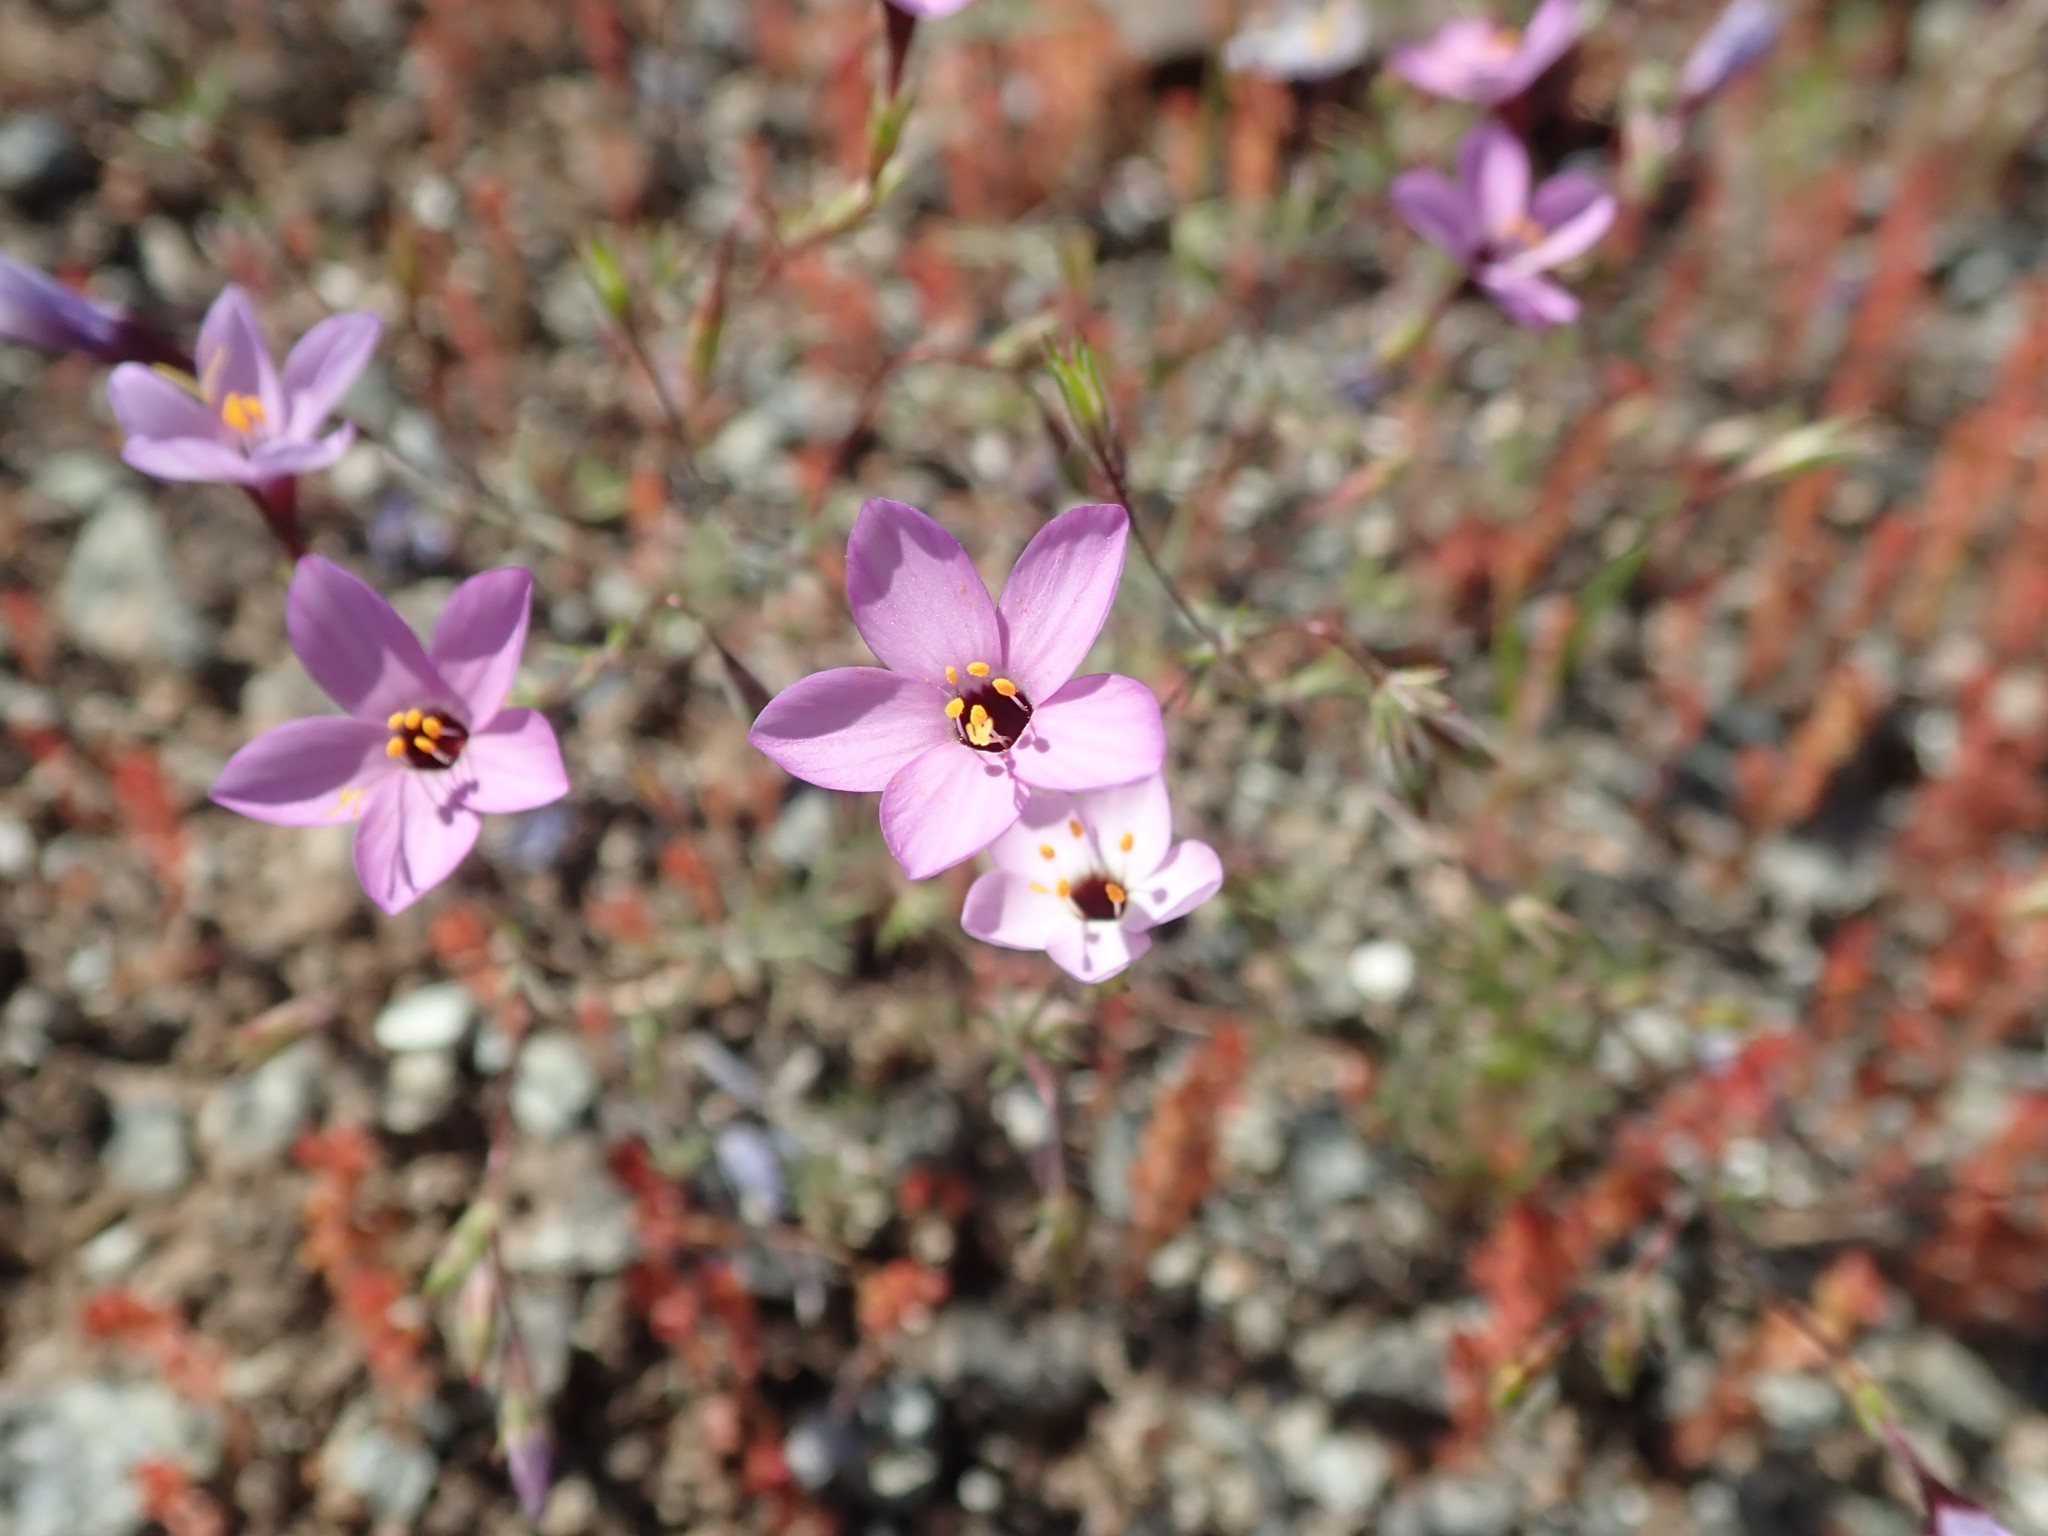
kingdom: Plantae
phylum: Tracheophyta
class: Magnoliopsida
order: Ericales
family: Polemoniaceae
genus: Leptosiphon
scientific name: Leptosiphon ambiguus
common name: Serpentine linanthus
